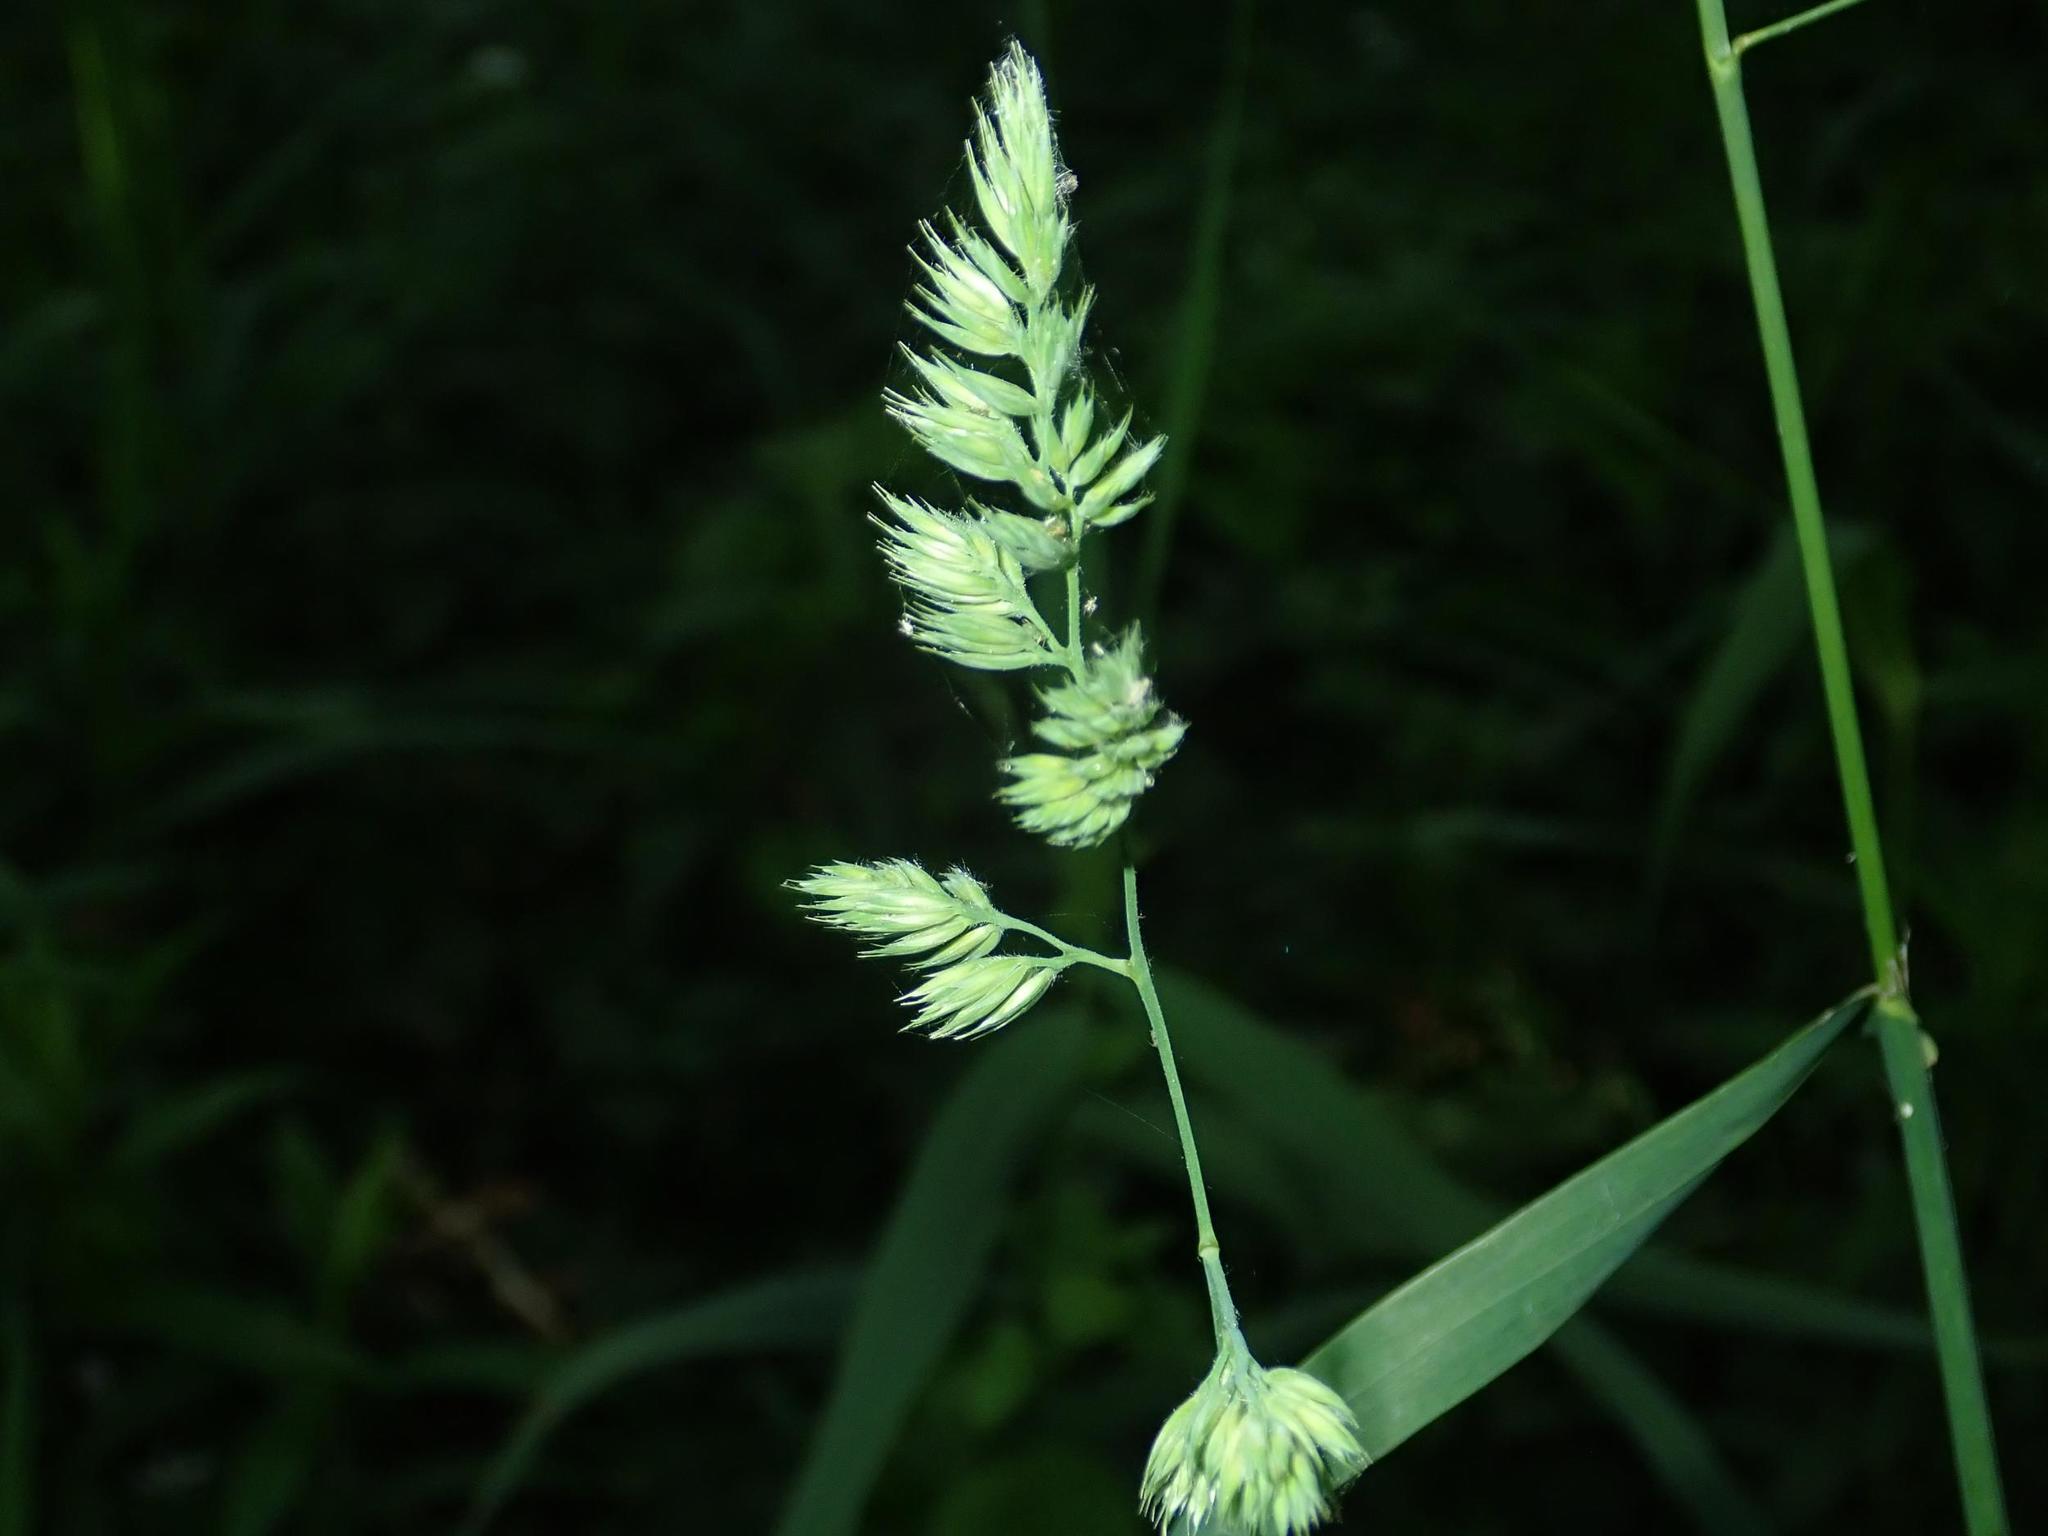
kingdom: Plantae
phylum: Tracheophyta
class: Liliopsida
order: Poales
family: Poaceae
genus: Dactylis
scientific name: Dactylis glomerata
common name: Orchardgrass
